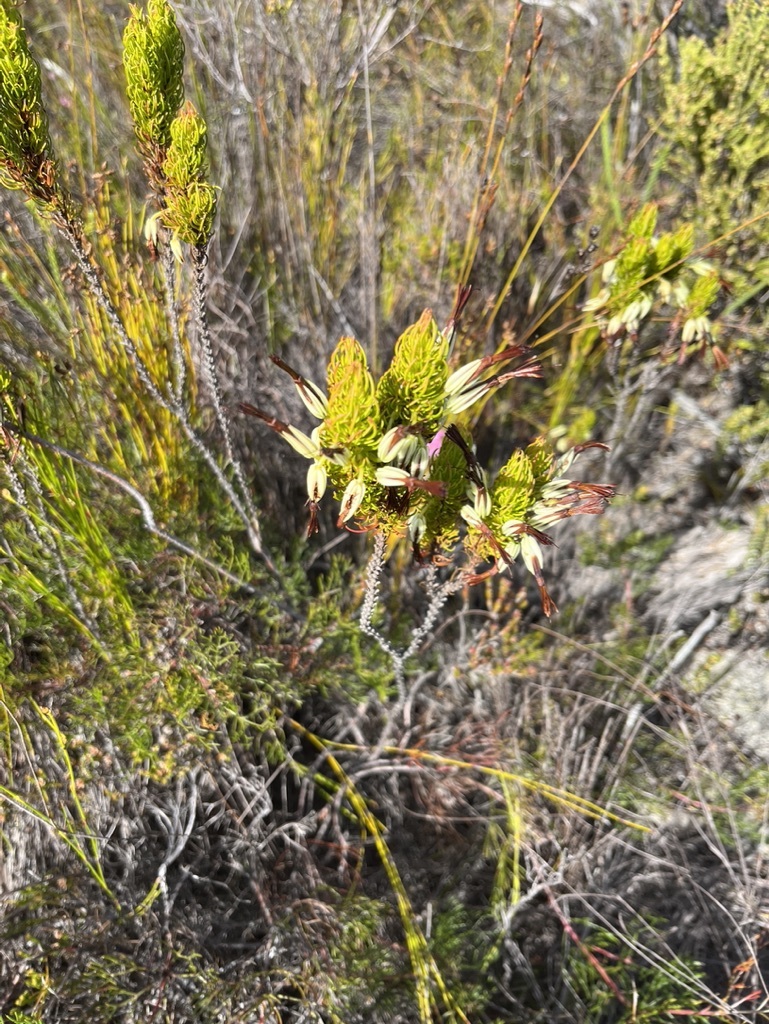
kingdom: Plantae
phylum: Tracheophyta
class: Magnoliopsida
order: Ericales
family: Ericaceae
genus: Erica
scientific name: Erica plukenetii
